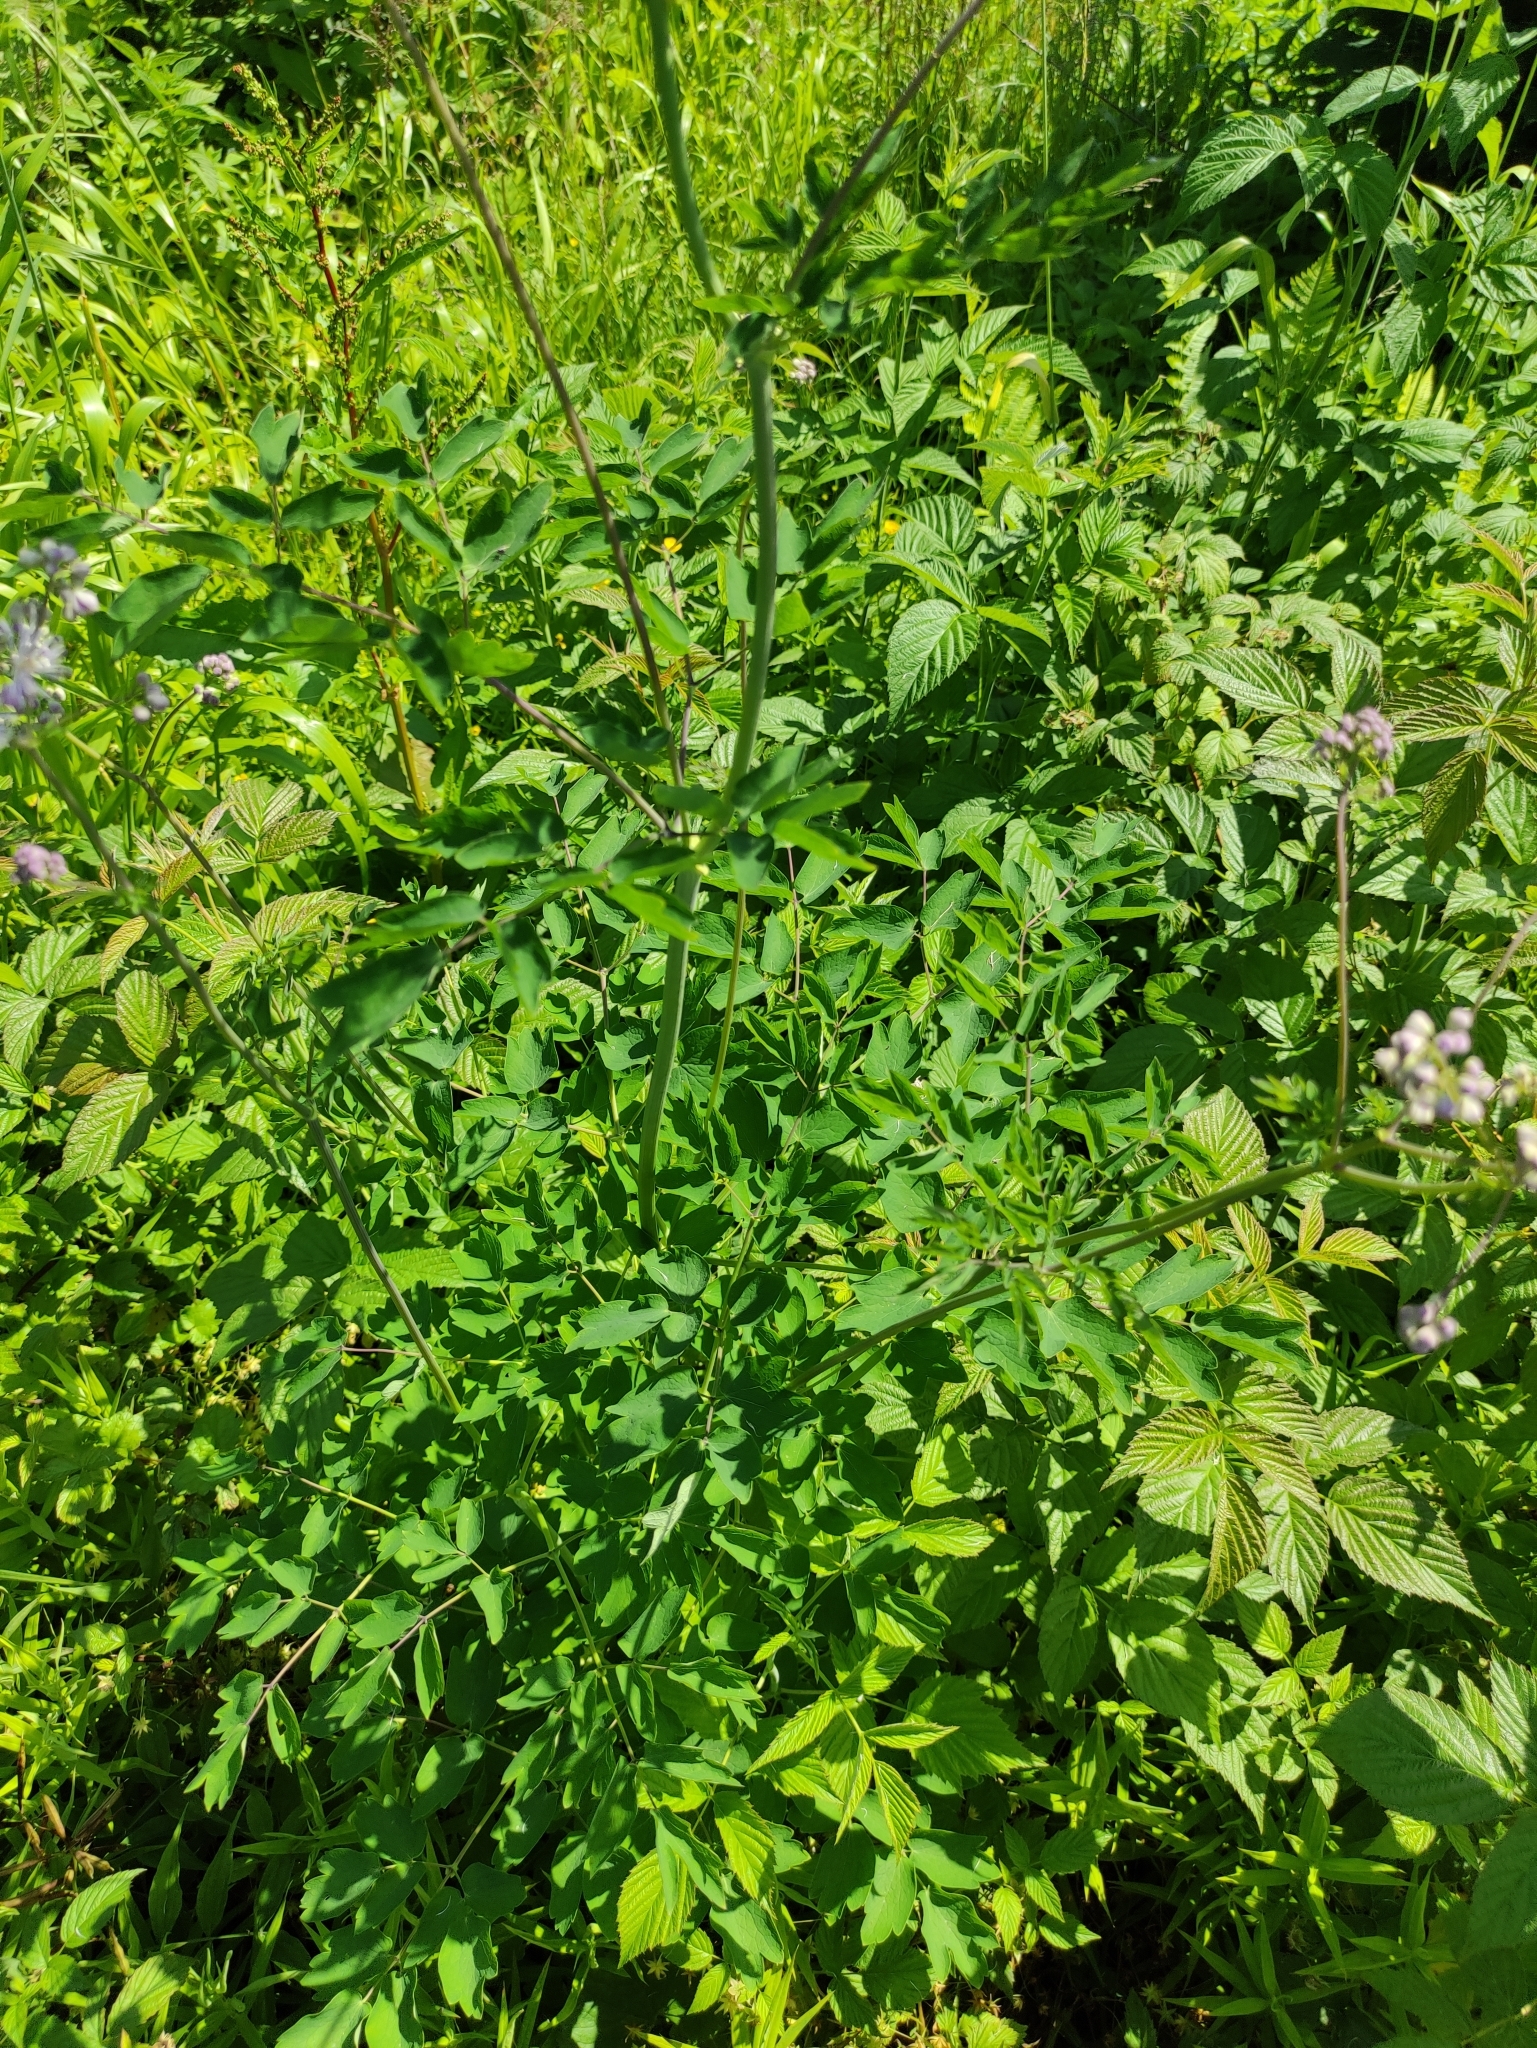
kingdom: Plantae
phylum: Tracheophyta
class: Magnoliopsida
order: Ranunculales
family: Ranunculaceae
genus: Thalictrum
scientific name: Thalictrum aquilegiifolium
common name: French meadow-rue
